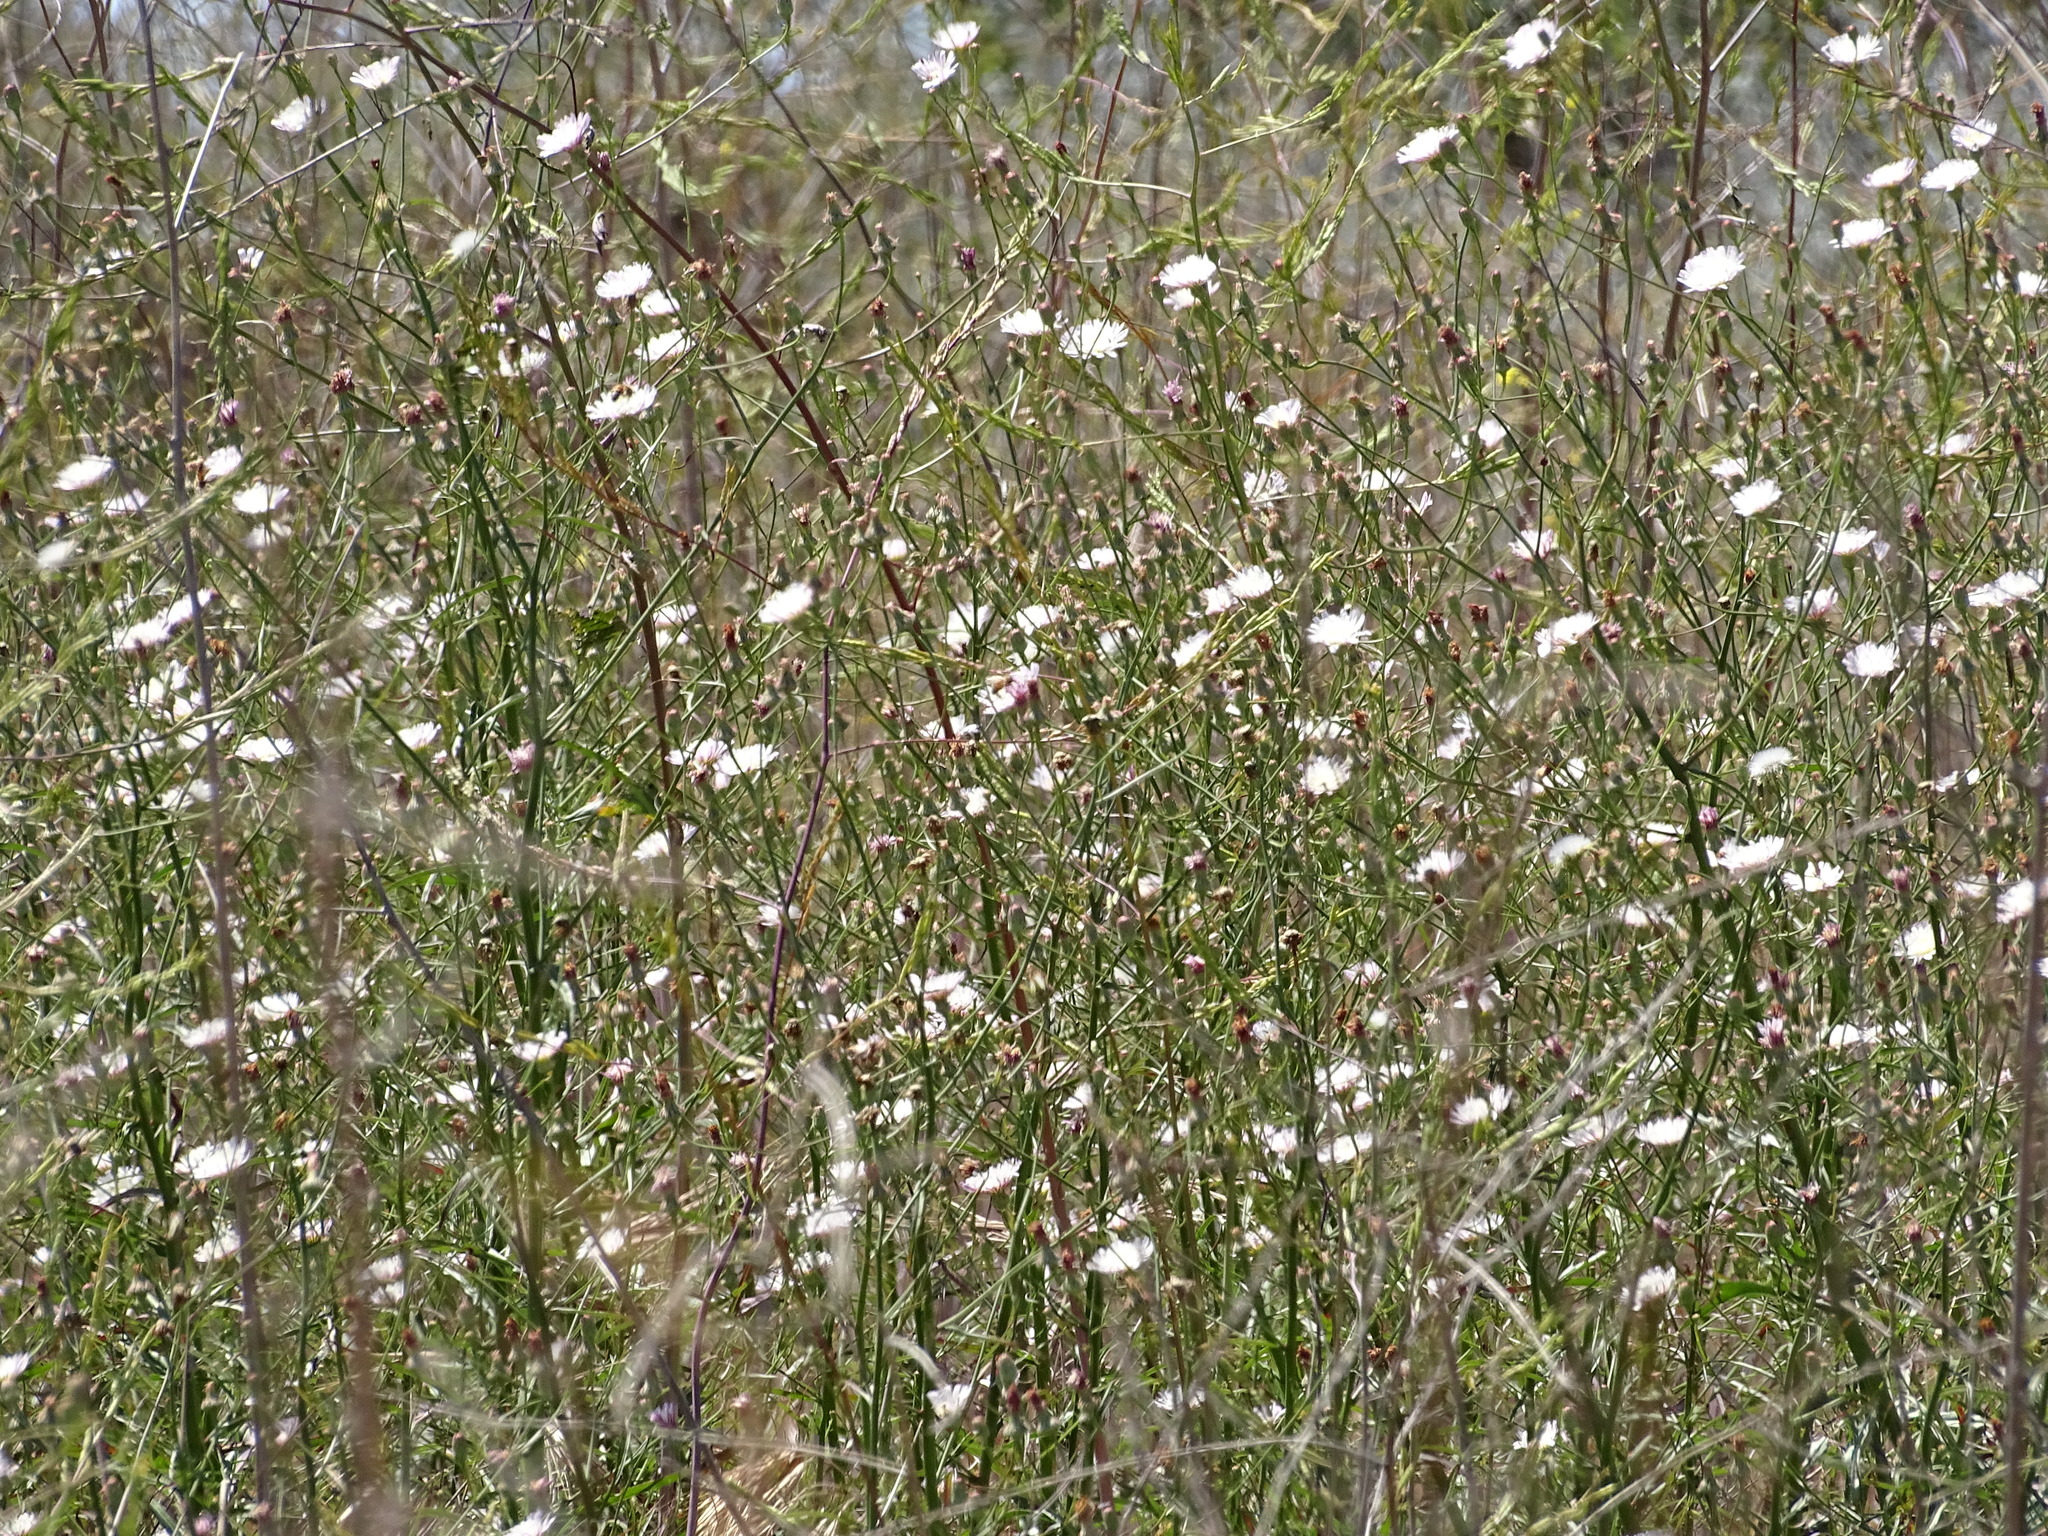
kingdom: Plantae
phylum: Tracheophyta
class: Magnoliopsida
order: Asterales
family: Asteraceae
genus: Malacothrix
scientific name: Malacothrix saxatilis
